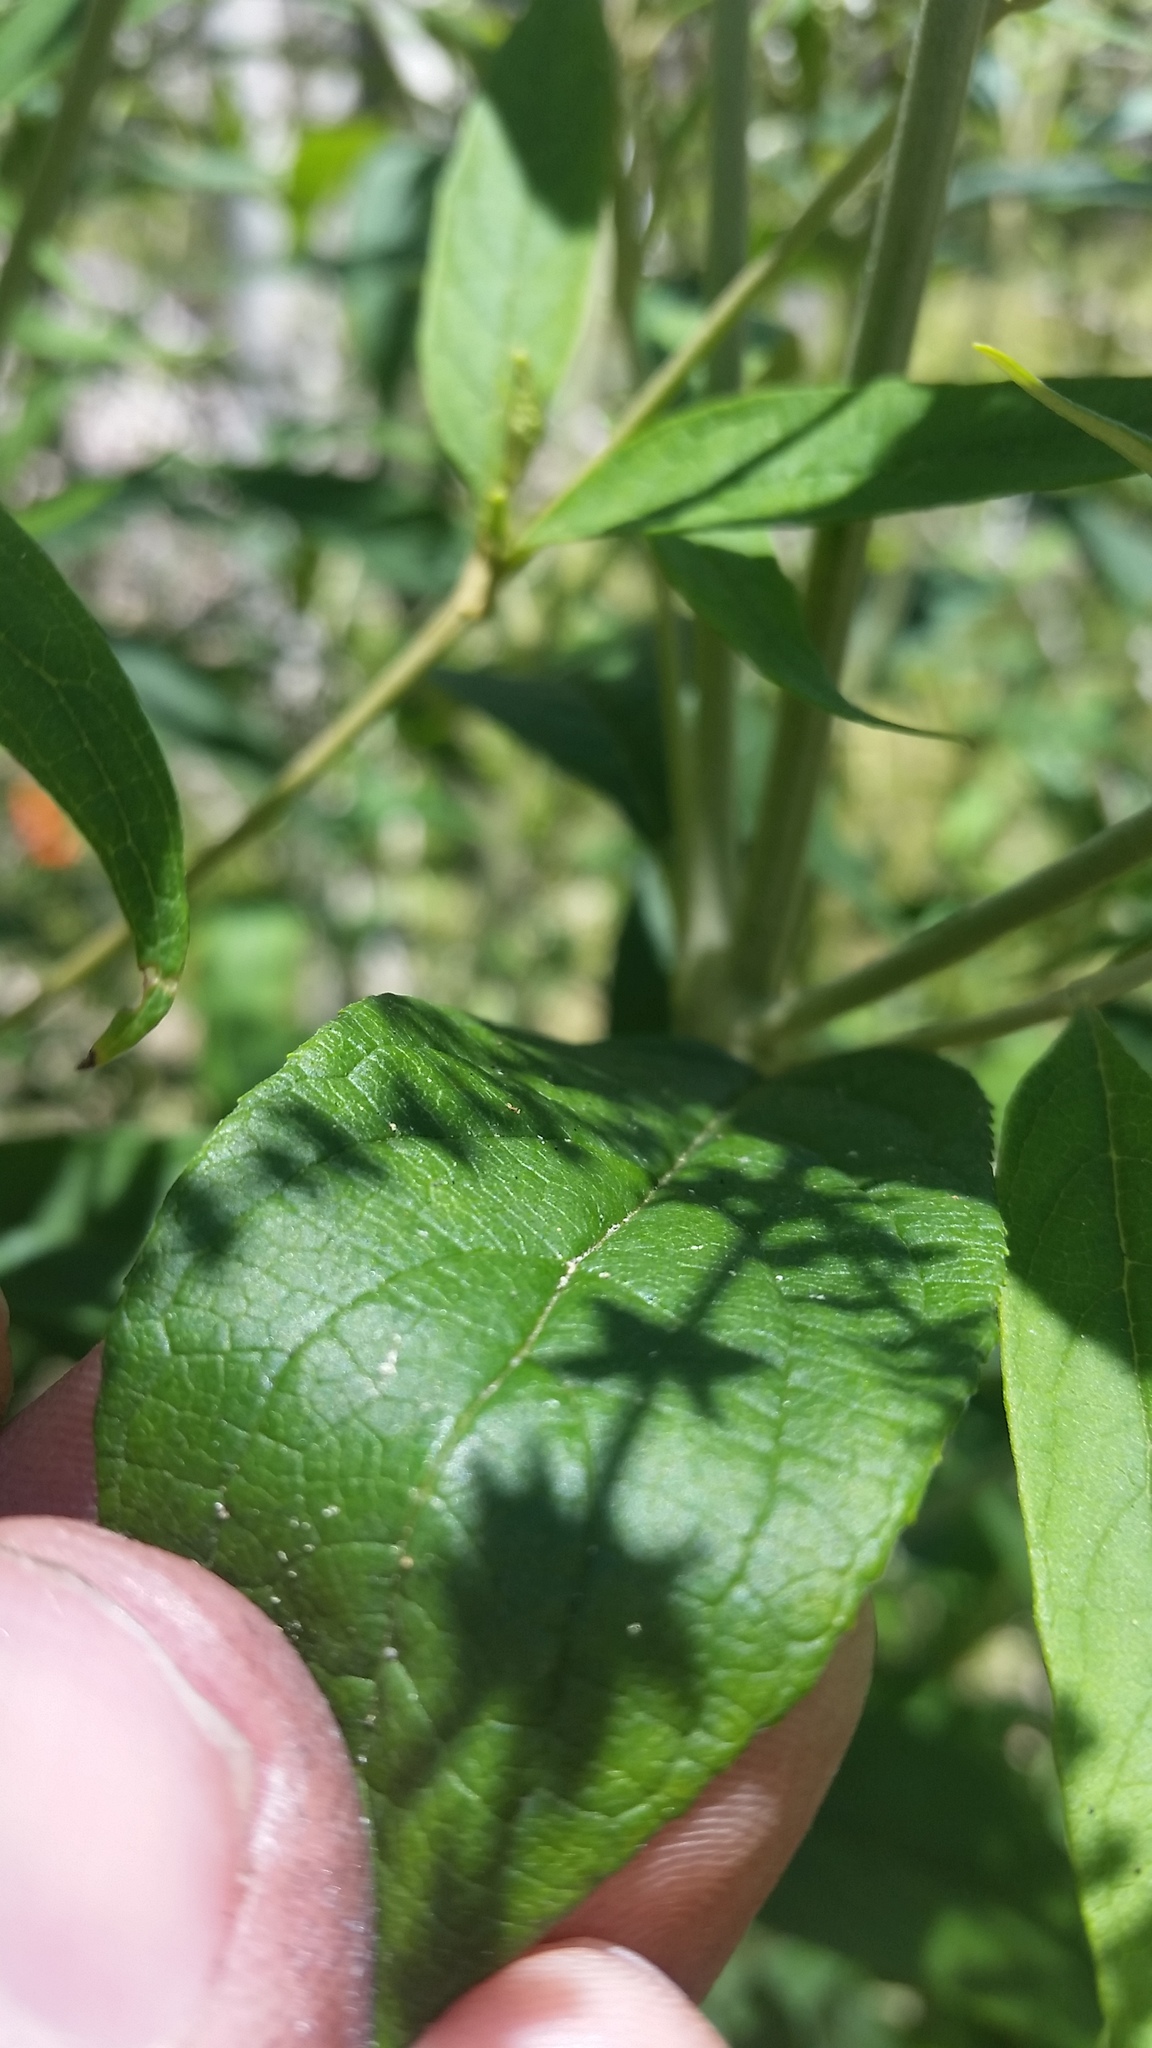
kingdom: Plantae
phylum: Tracheophyta
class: Magnoliopsida
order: Lamiales
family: Scrophulariaceae
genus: Buddleja
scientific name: Buddleja asiatica
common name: Dog tail
